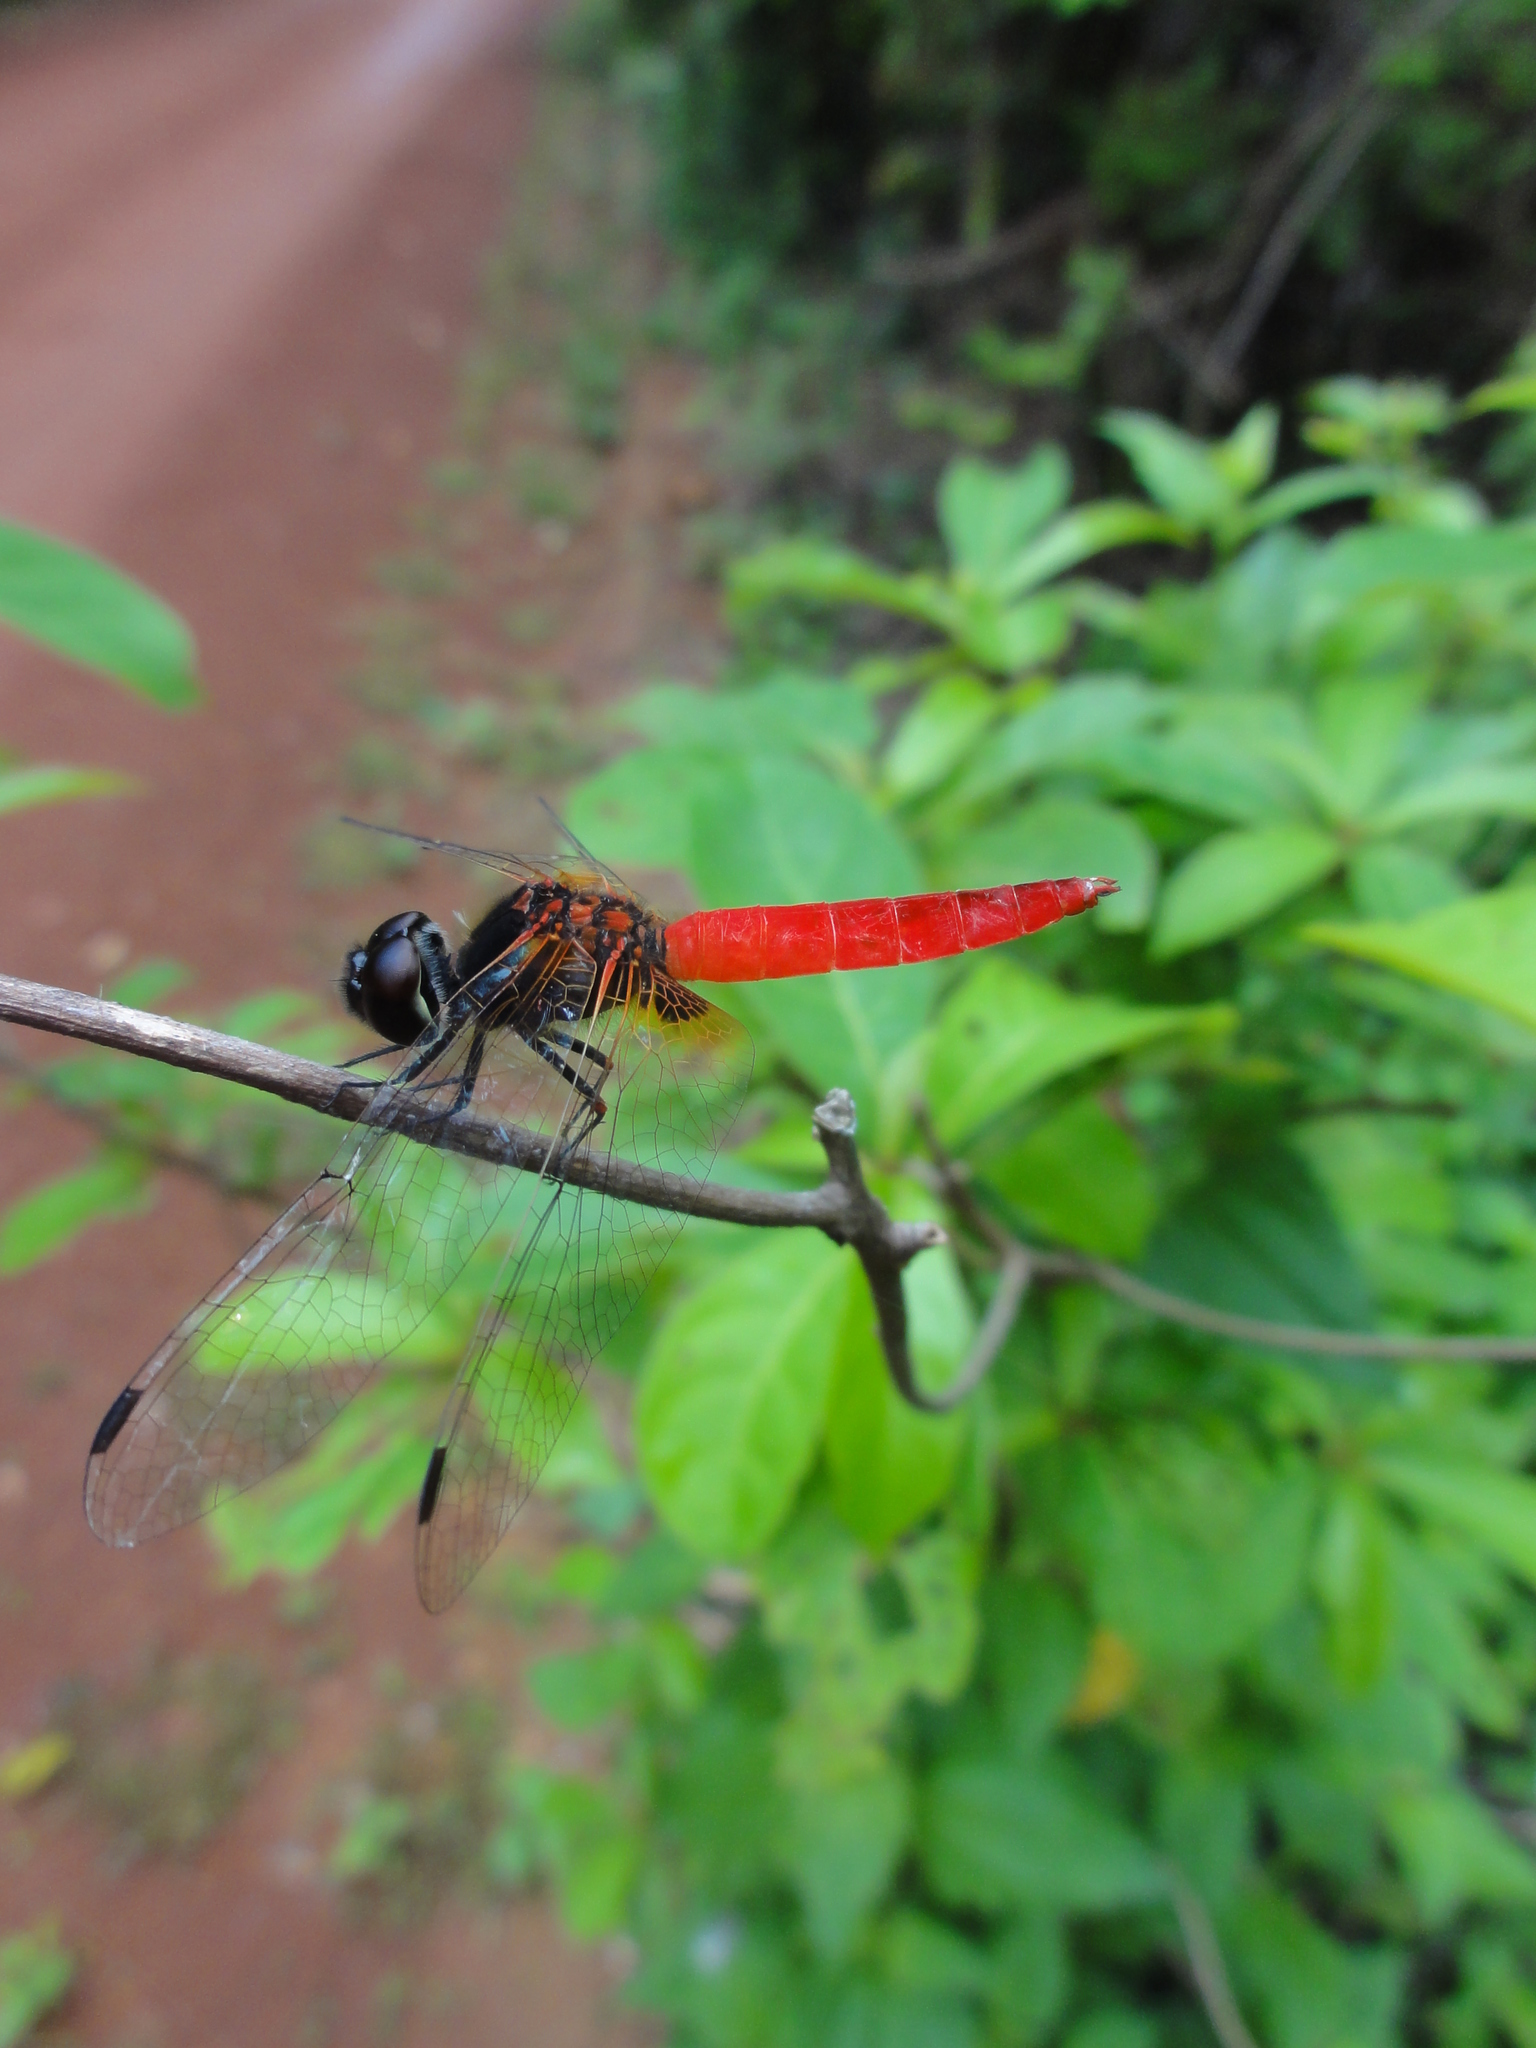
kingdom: Animalia
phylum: Arthropoda
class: Insecta
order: Odonata
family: Libellulidae
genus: Aethriamanta
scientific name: Aethriamanta brevipennis
